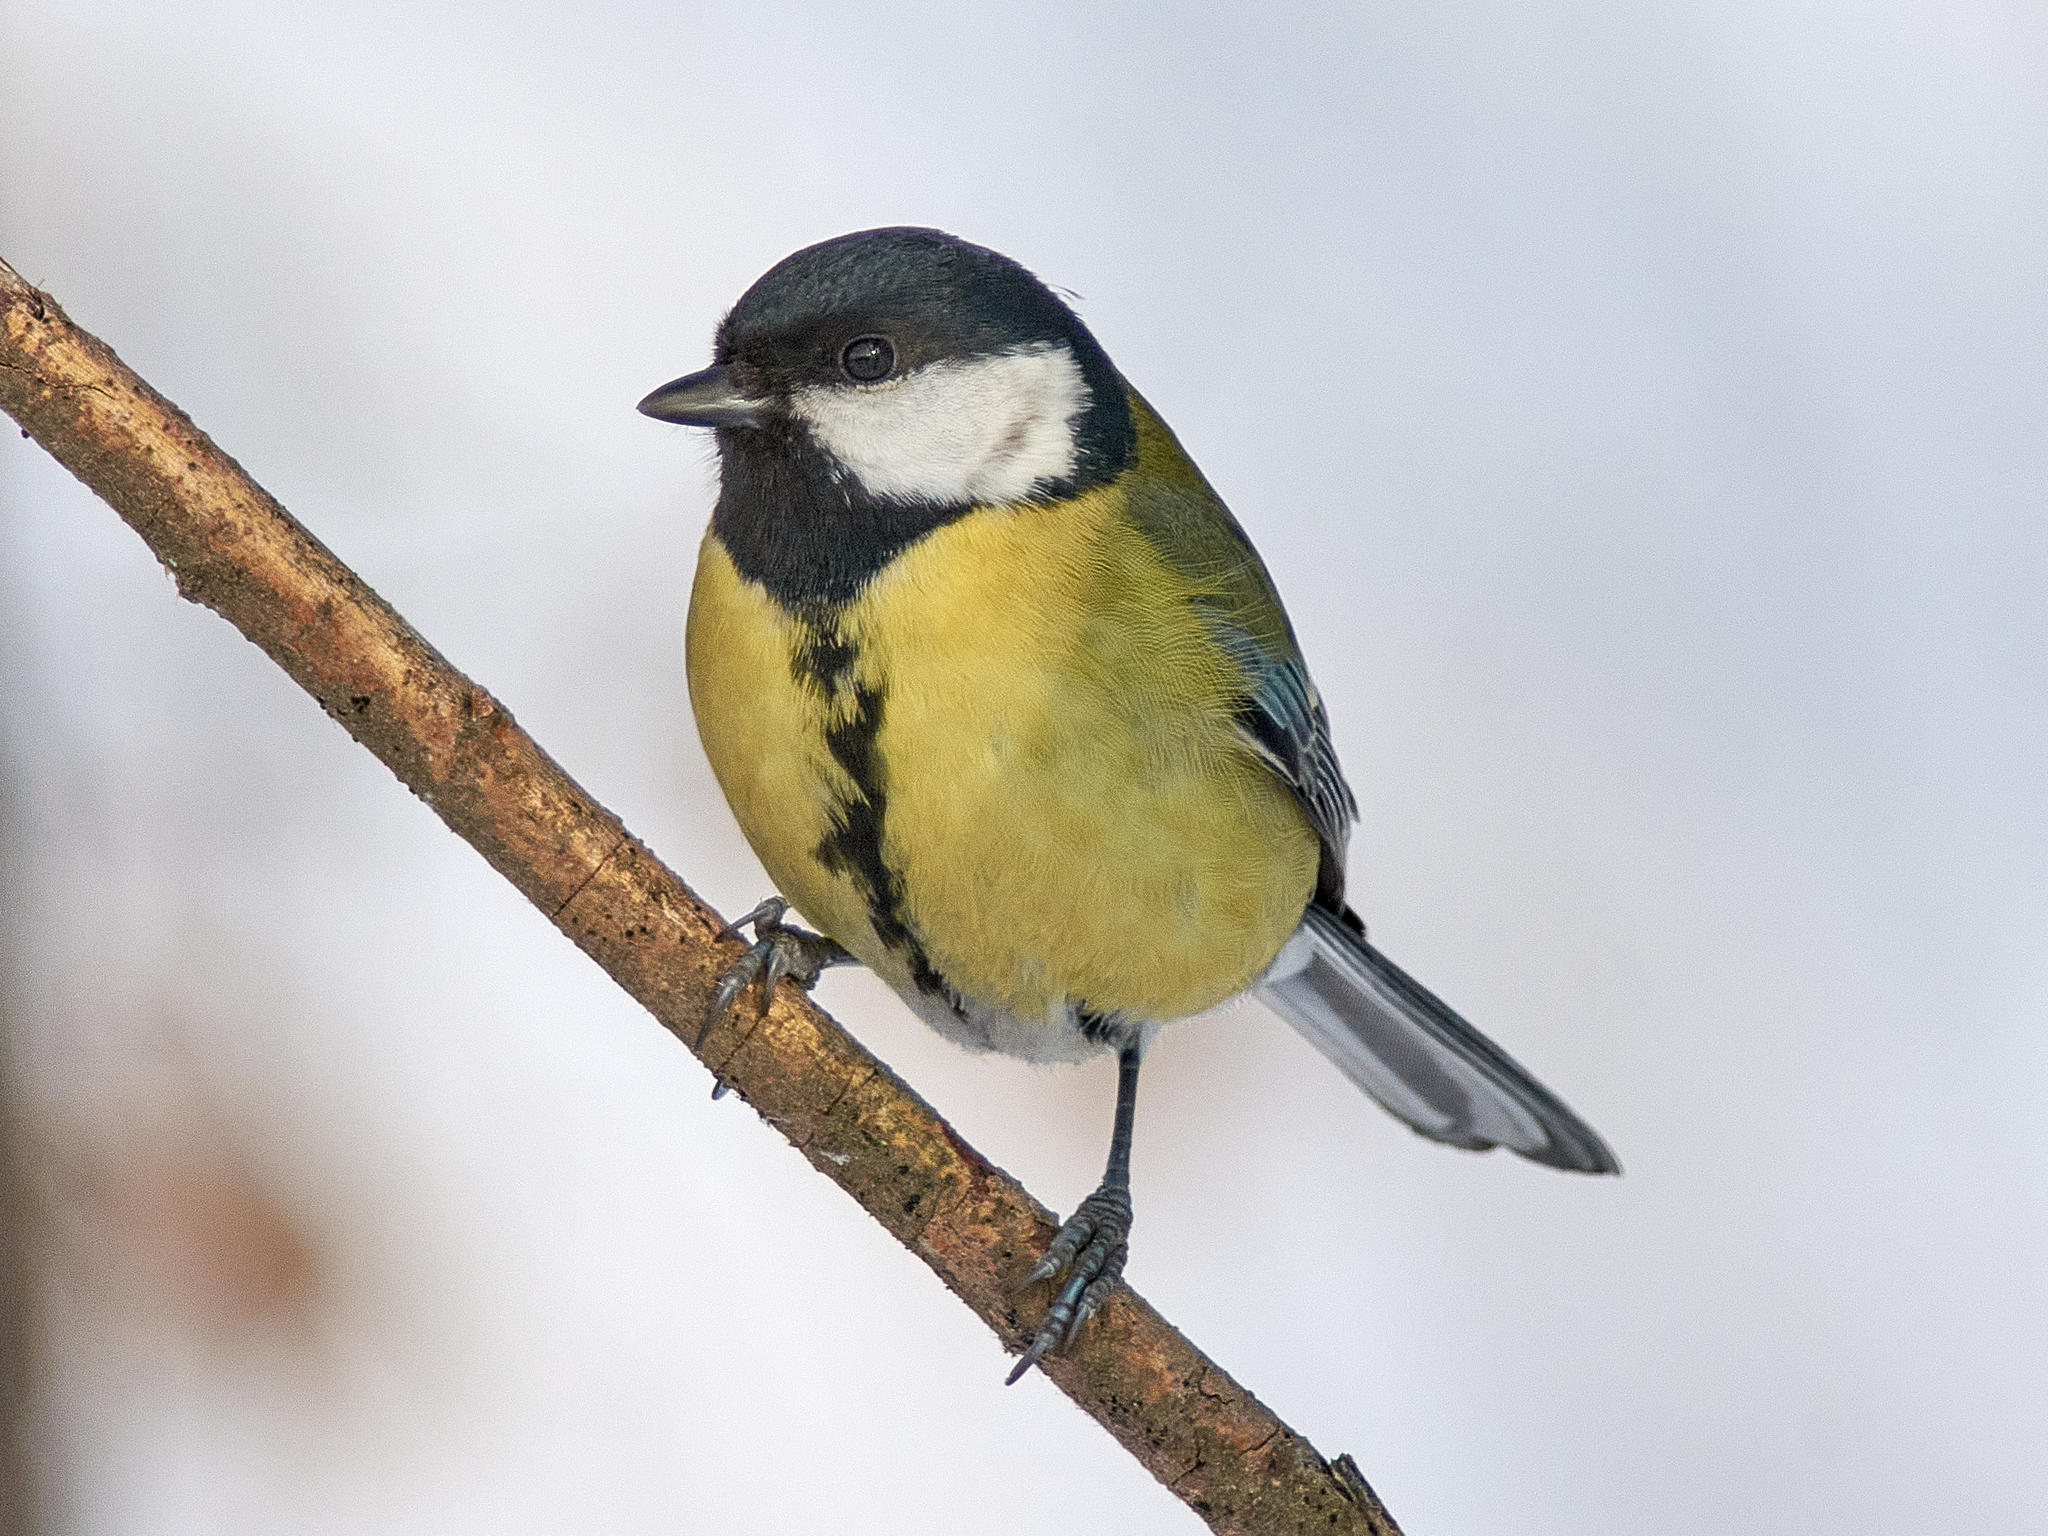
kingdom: Animalia
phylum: Chordata
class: Aves
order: Passeriformes
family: Paridae
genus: Parus
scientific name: Parus major
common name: Great tit
